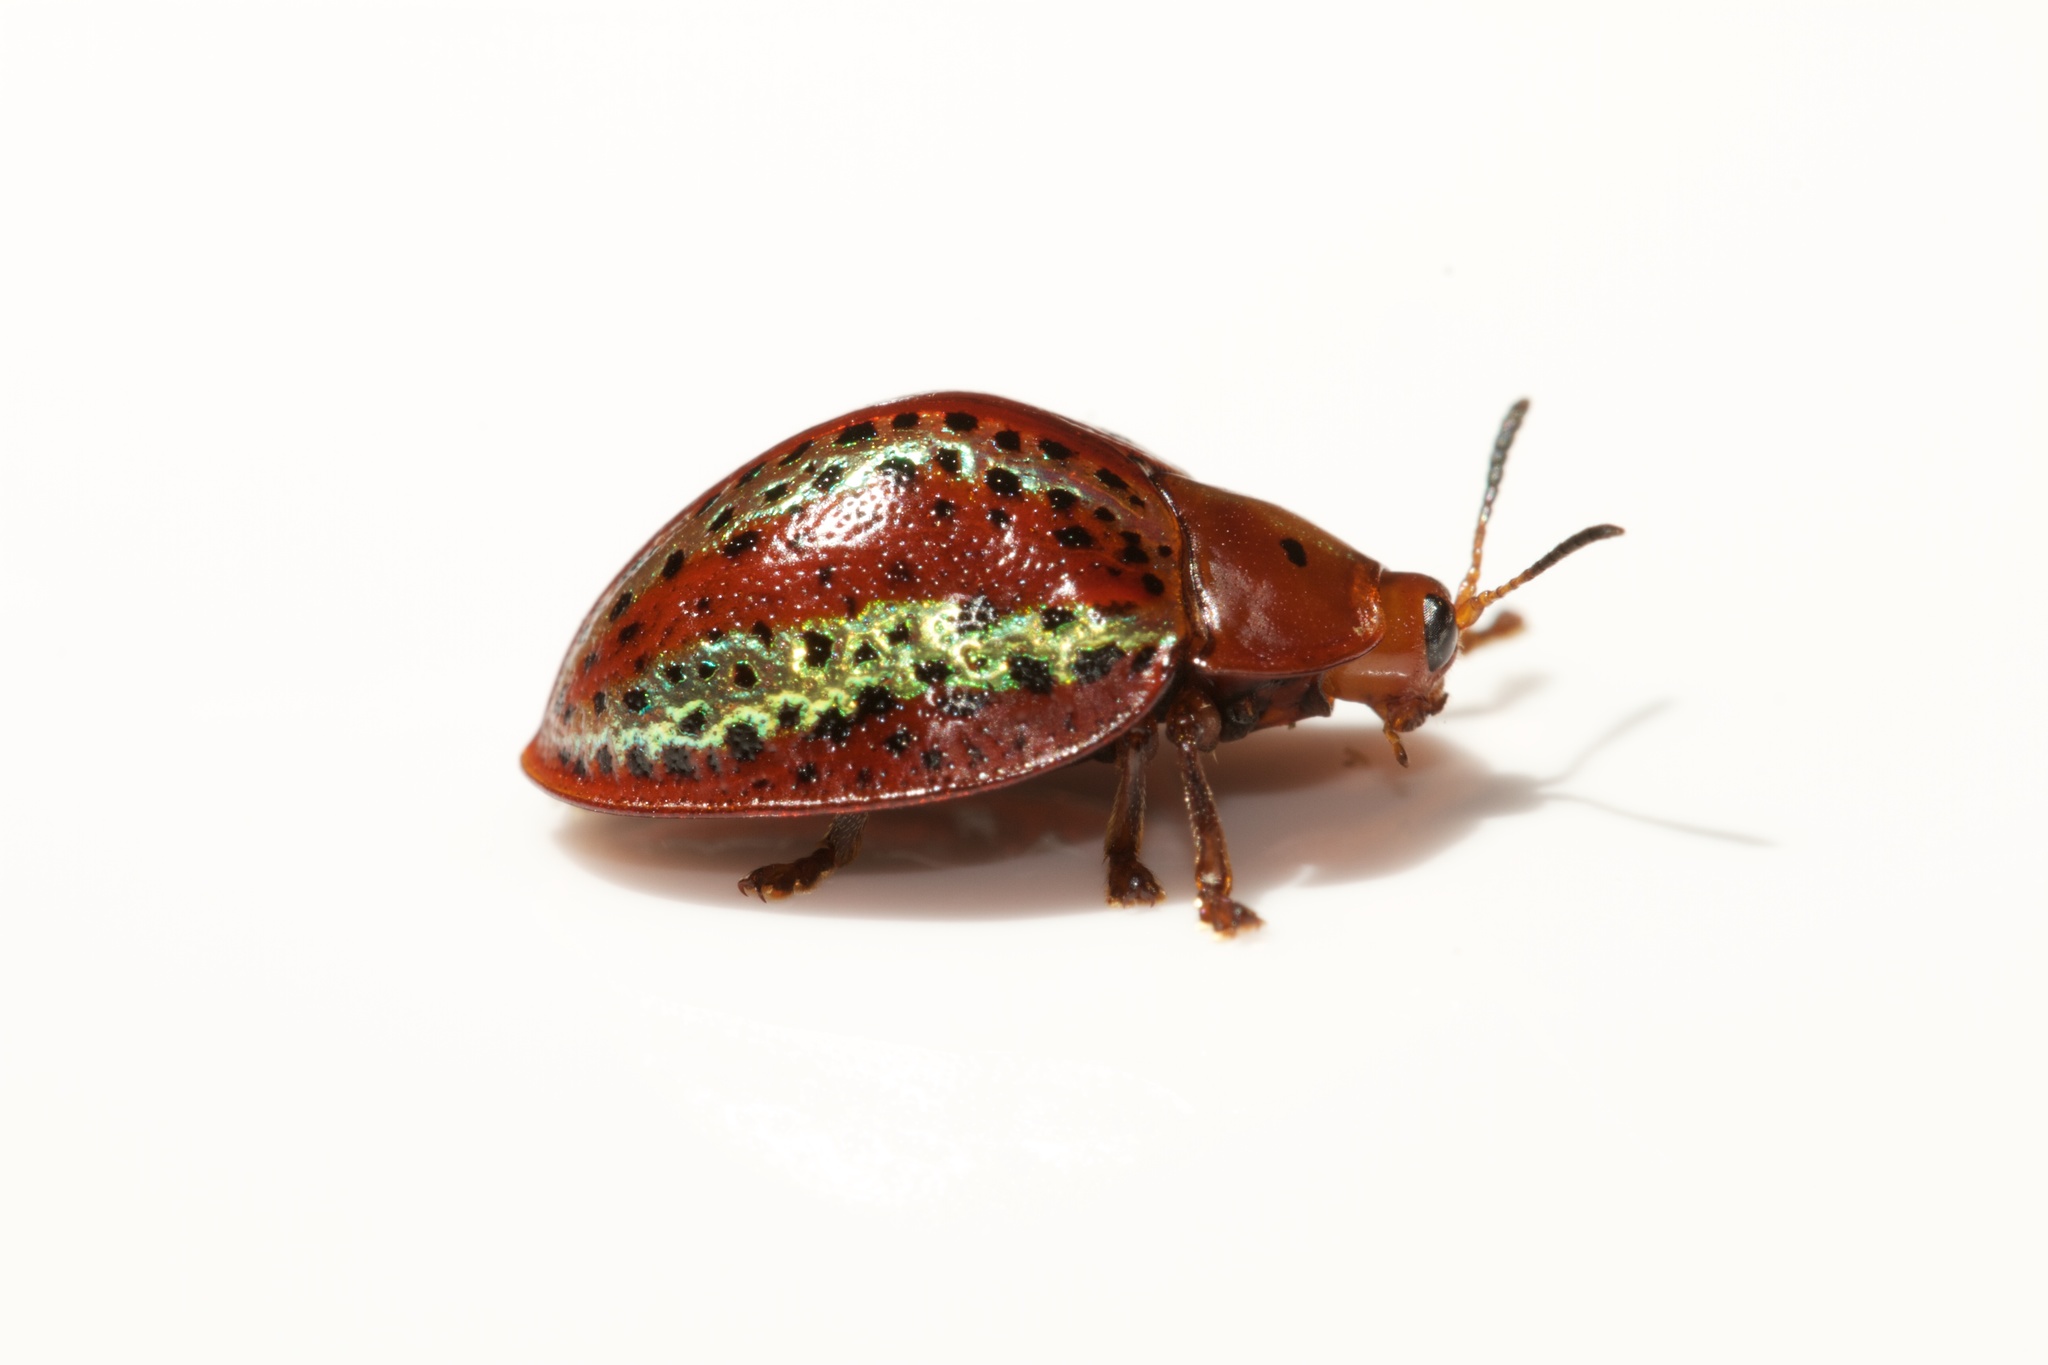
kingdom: Animalia
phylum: Arthropoda
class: Insecta
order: Coleoptera
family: Chrysomelidae
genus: Chelymorpha
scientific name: Chelymorpha alternans
